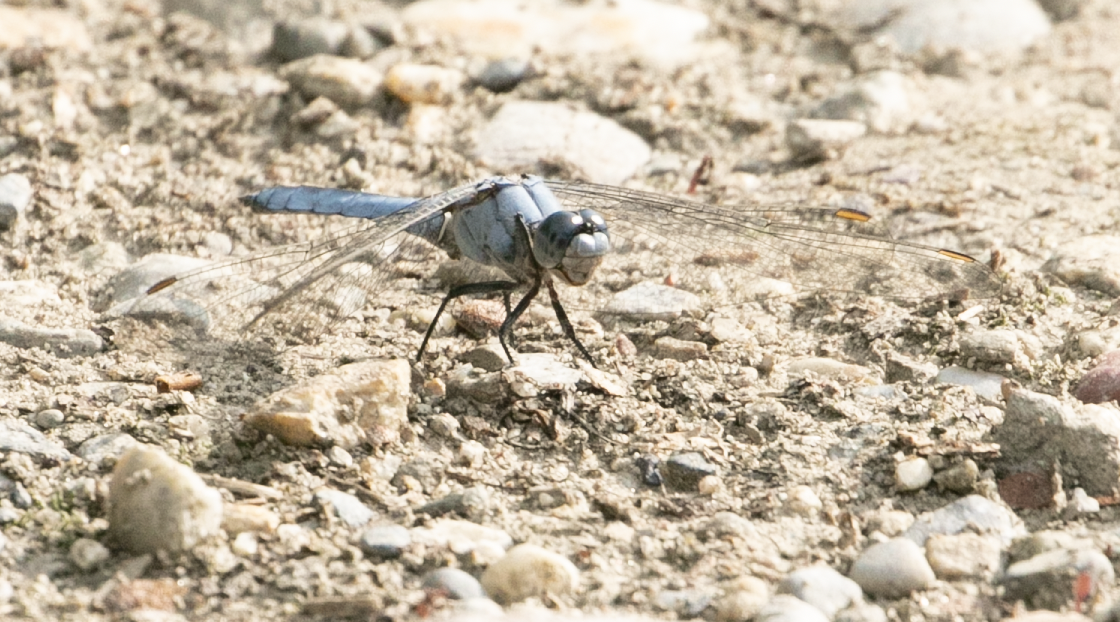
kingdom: Animalia
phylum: Arthropoda
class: Insecta
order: Odonata
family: Libellulidae
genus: Orthetrum
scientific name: Orthetrum brunneum
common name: Southern skimmer
